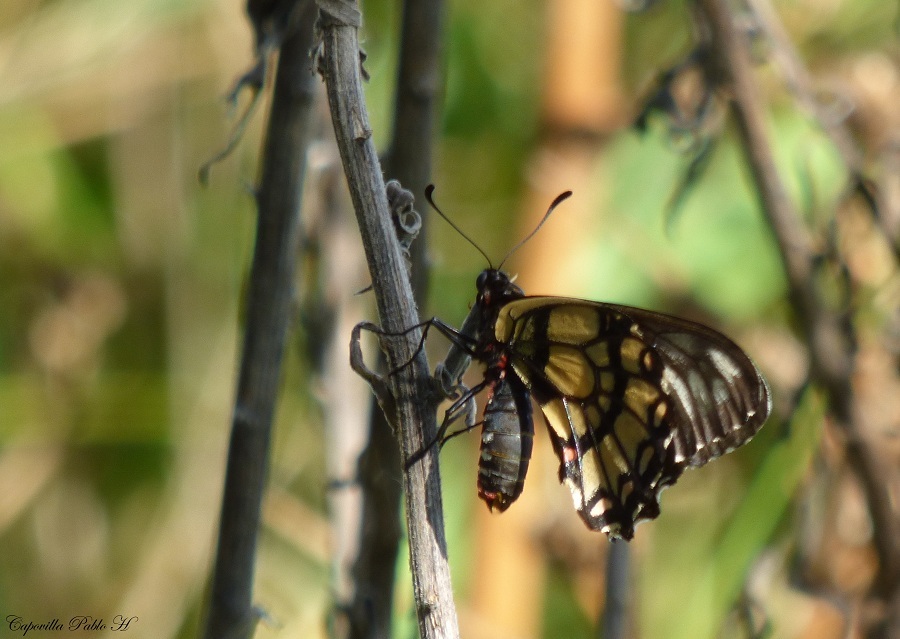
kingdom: Animalia
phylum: Arthropoda
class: Insecta
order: Lepidoptera
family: Papilionidae
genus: Euryades
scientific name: Euryades corethrus
